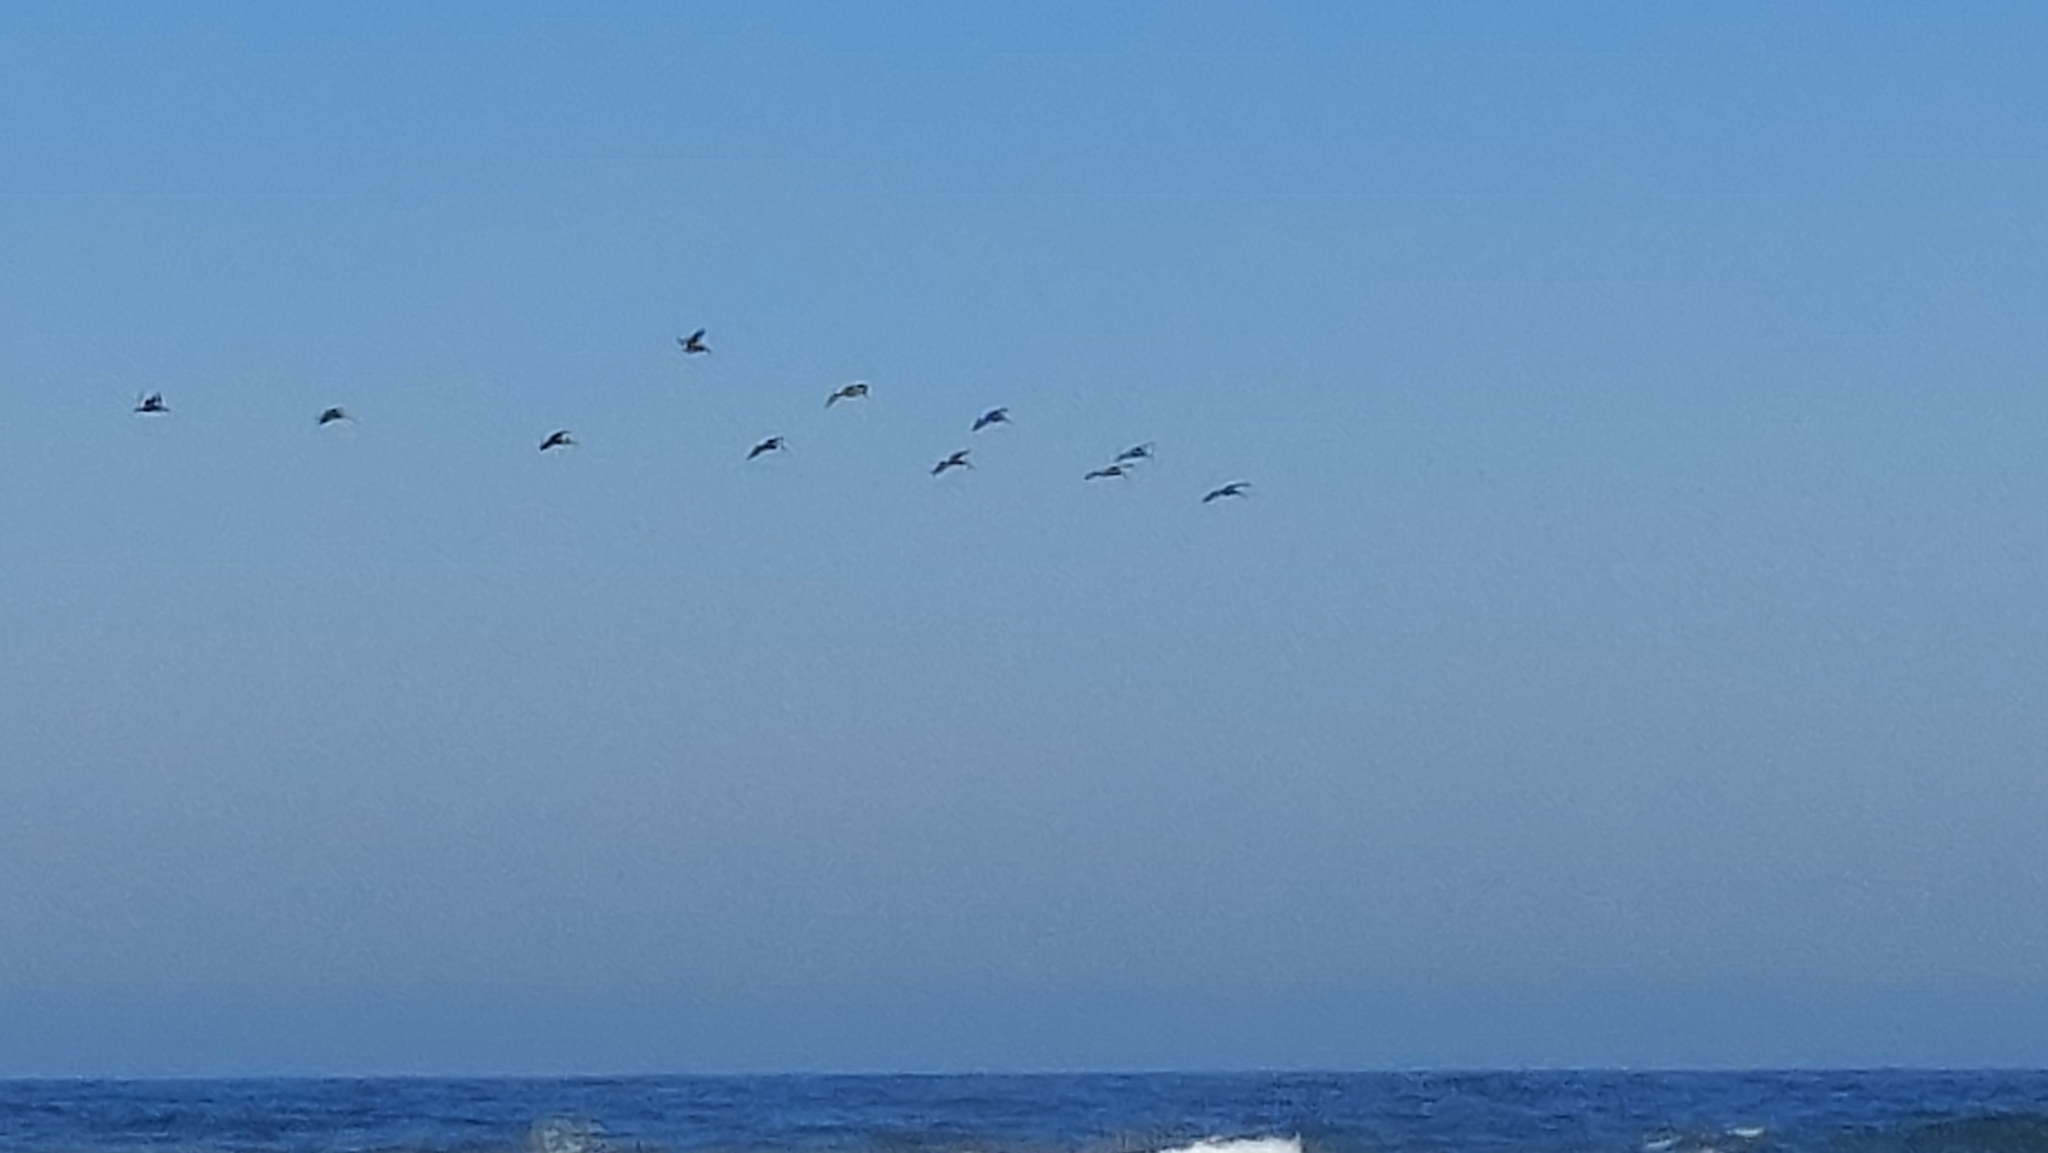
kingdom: Animalia
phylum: Chordata
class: Aves
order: Pelecaniformes
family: Pelecanidae
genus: Pelecanus
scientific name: Pelecanus occidentalis
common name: Brown pelican
